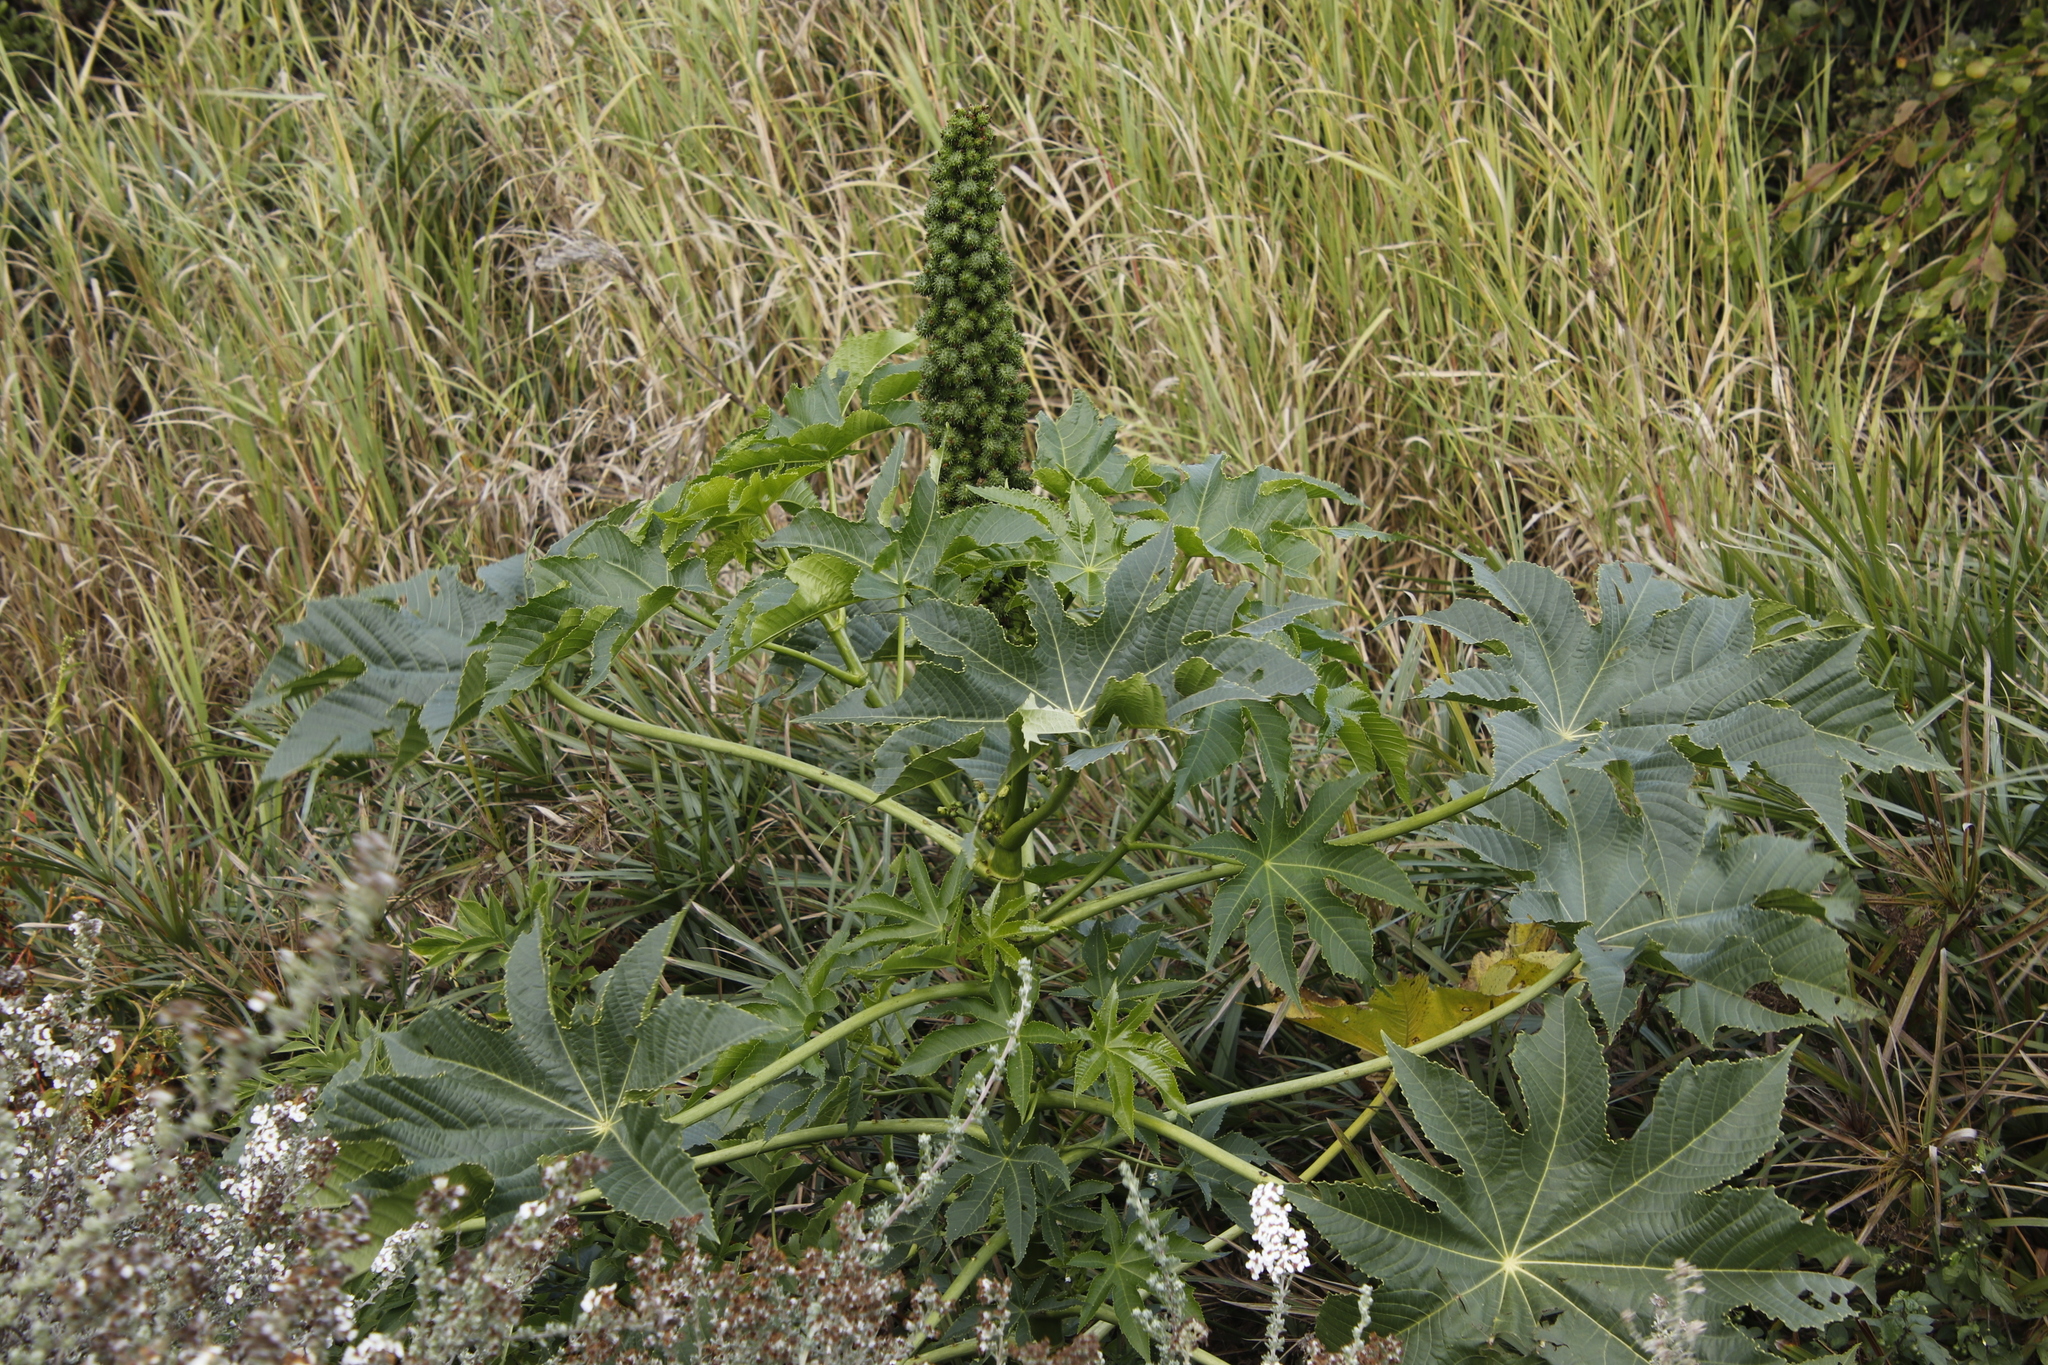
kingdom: Plantae
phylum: Tracheophyta
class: Magnoliopsida
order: Malpighiales
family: Euphorbiaceae
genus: Ricinus
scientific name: Ricinus communis
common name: Castor-oil-plant
